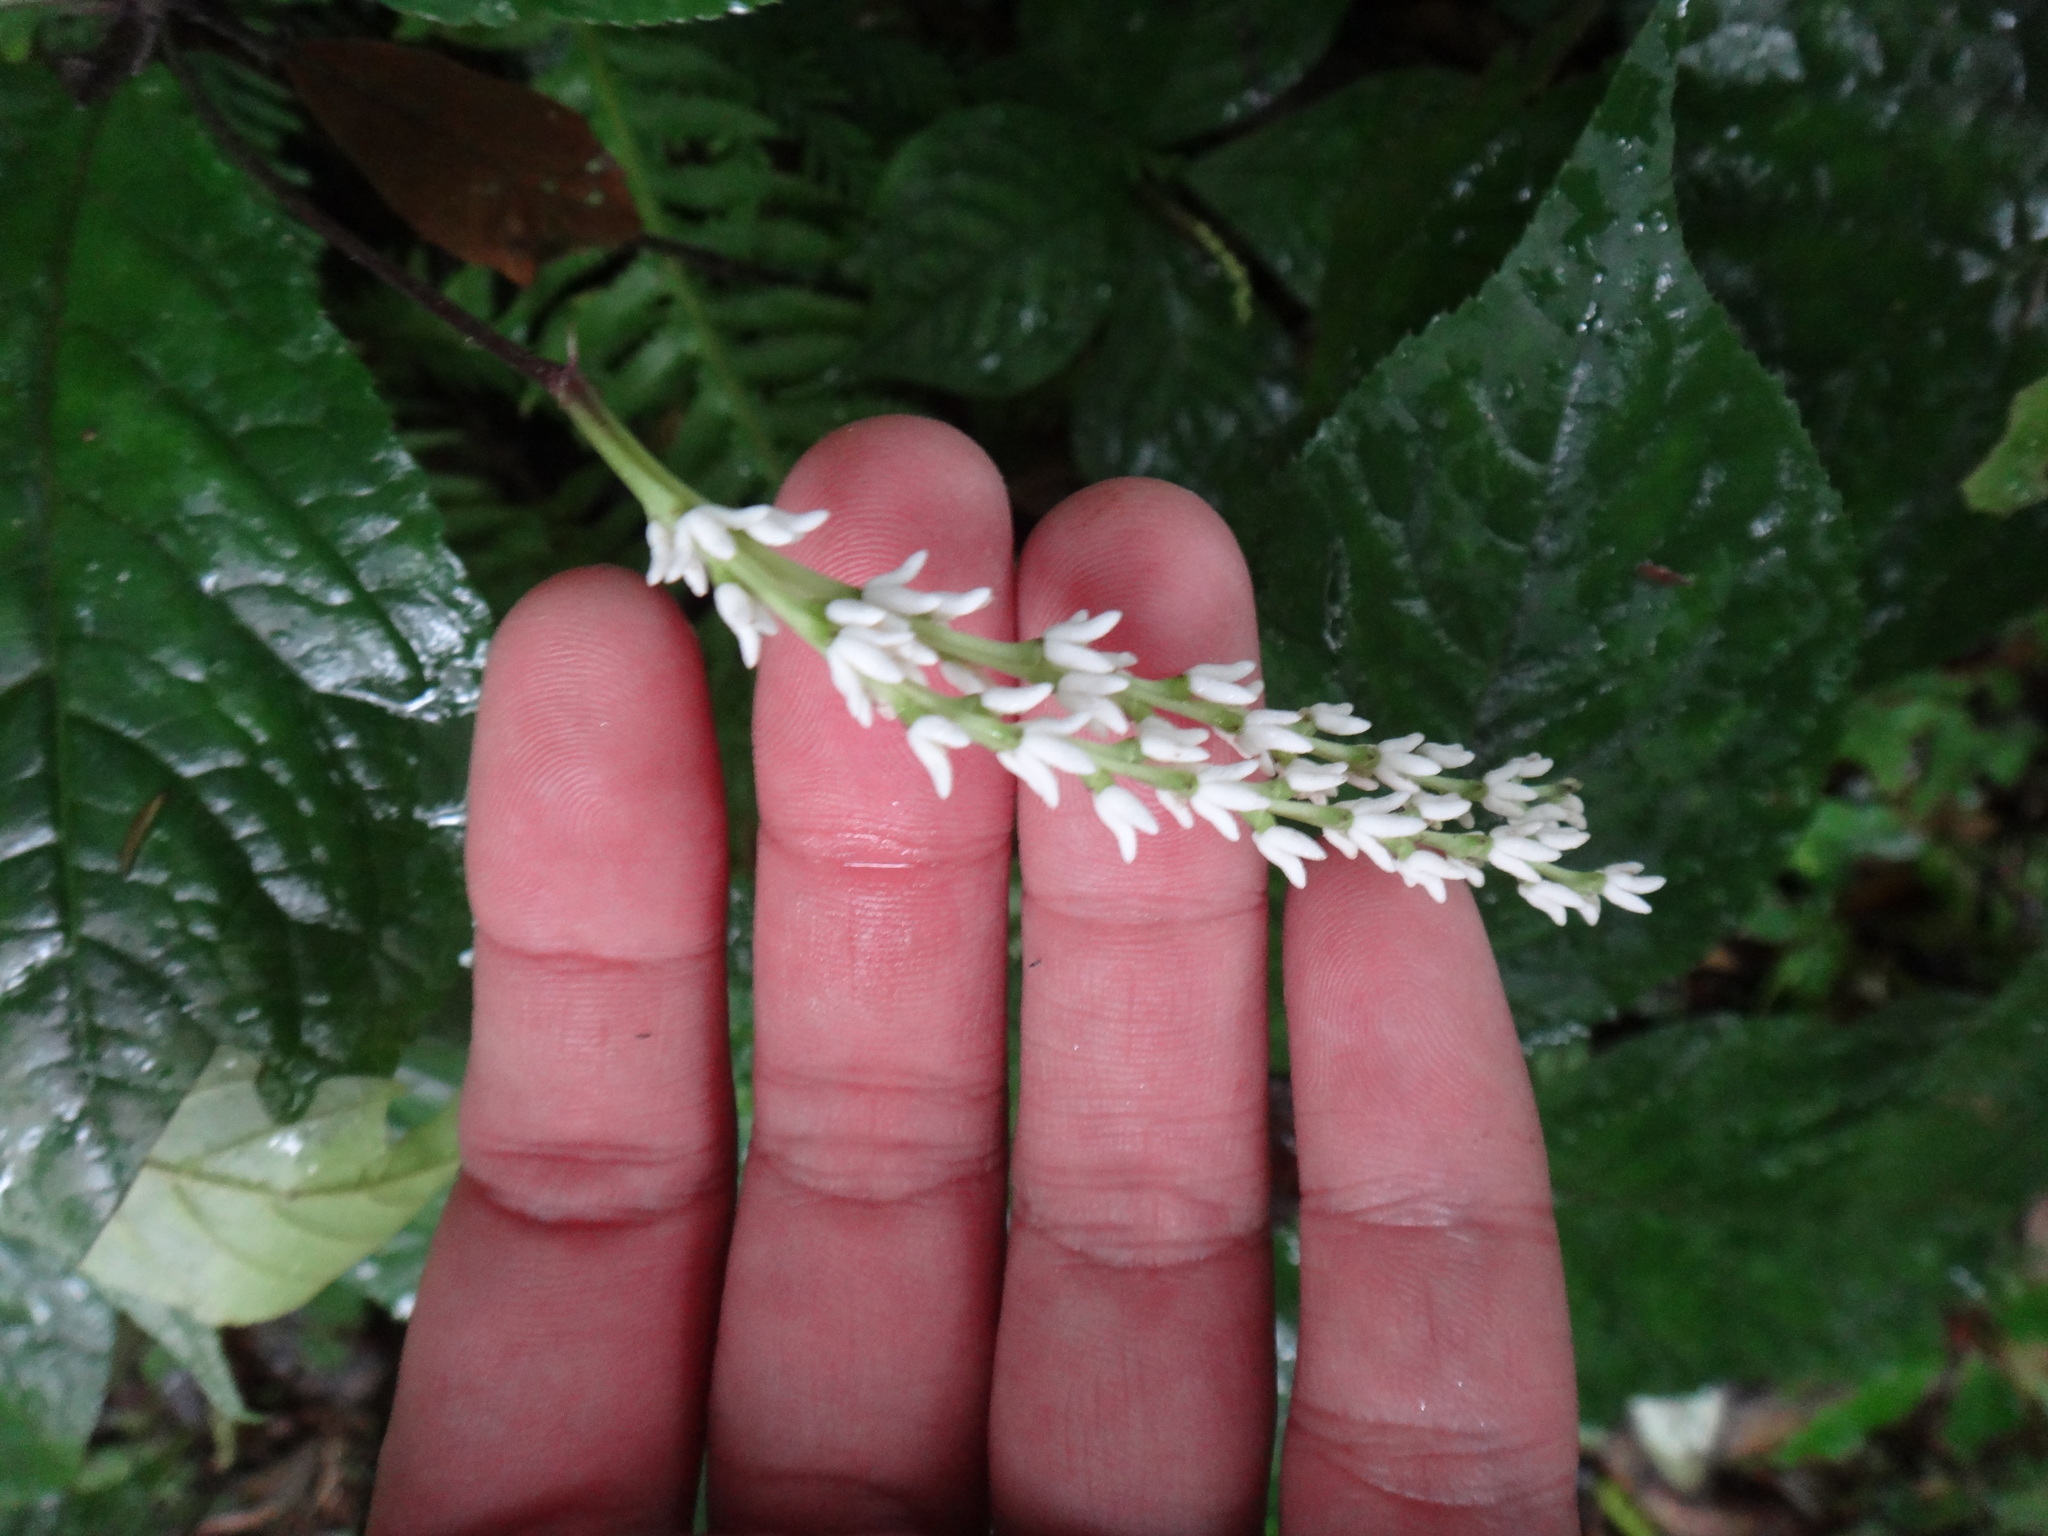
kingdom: Plantae
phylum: Tracheophyta
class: Magnoliopsida
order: Chloranthales
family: Chloranthaceae
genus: Chloranthus
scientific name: Chloranthus oldhamii
